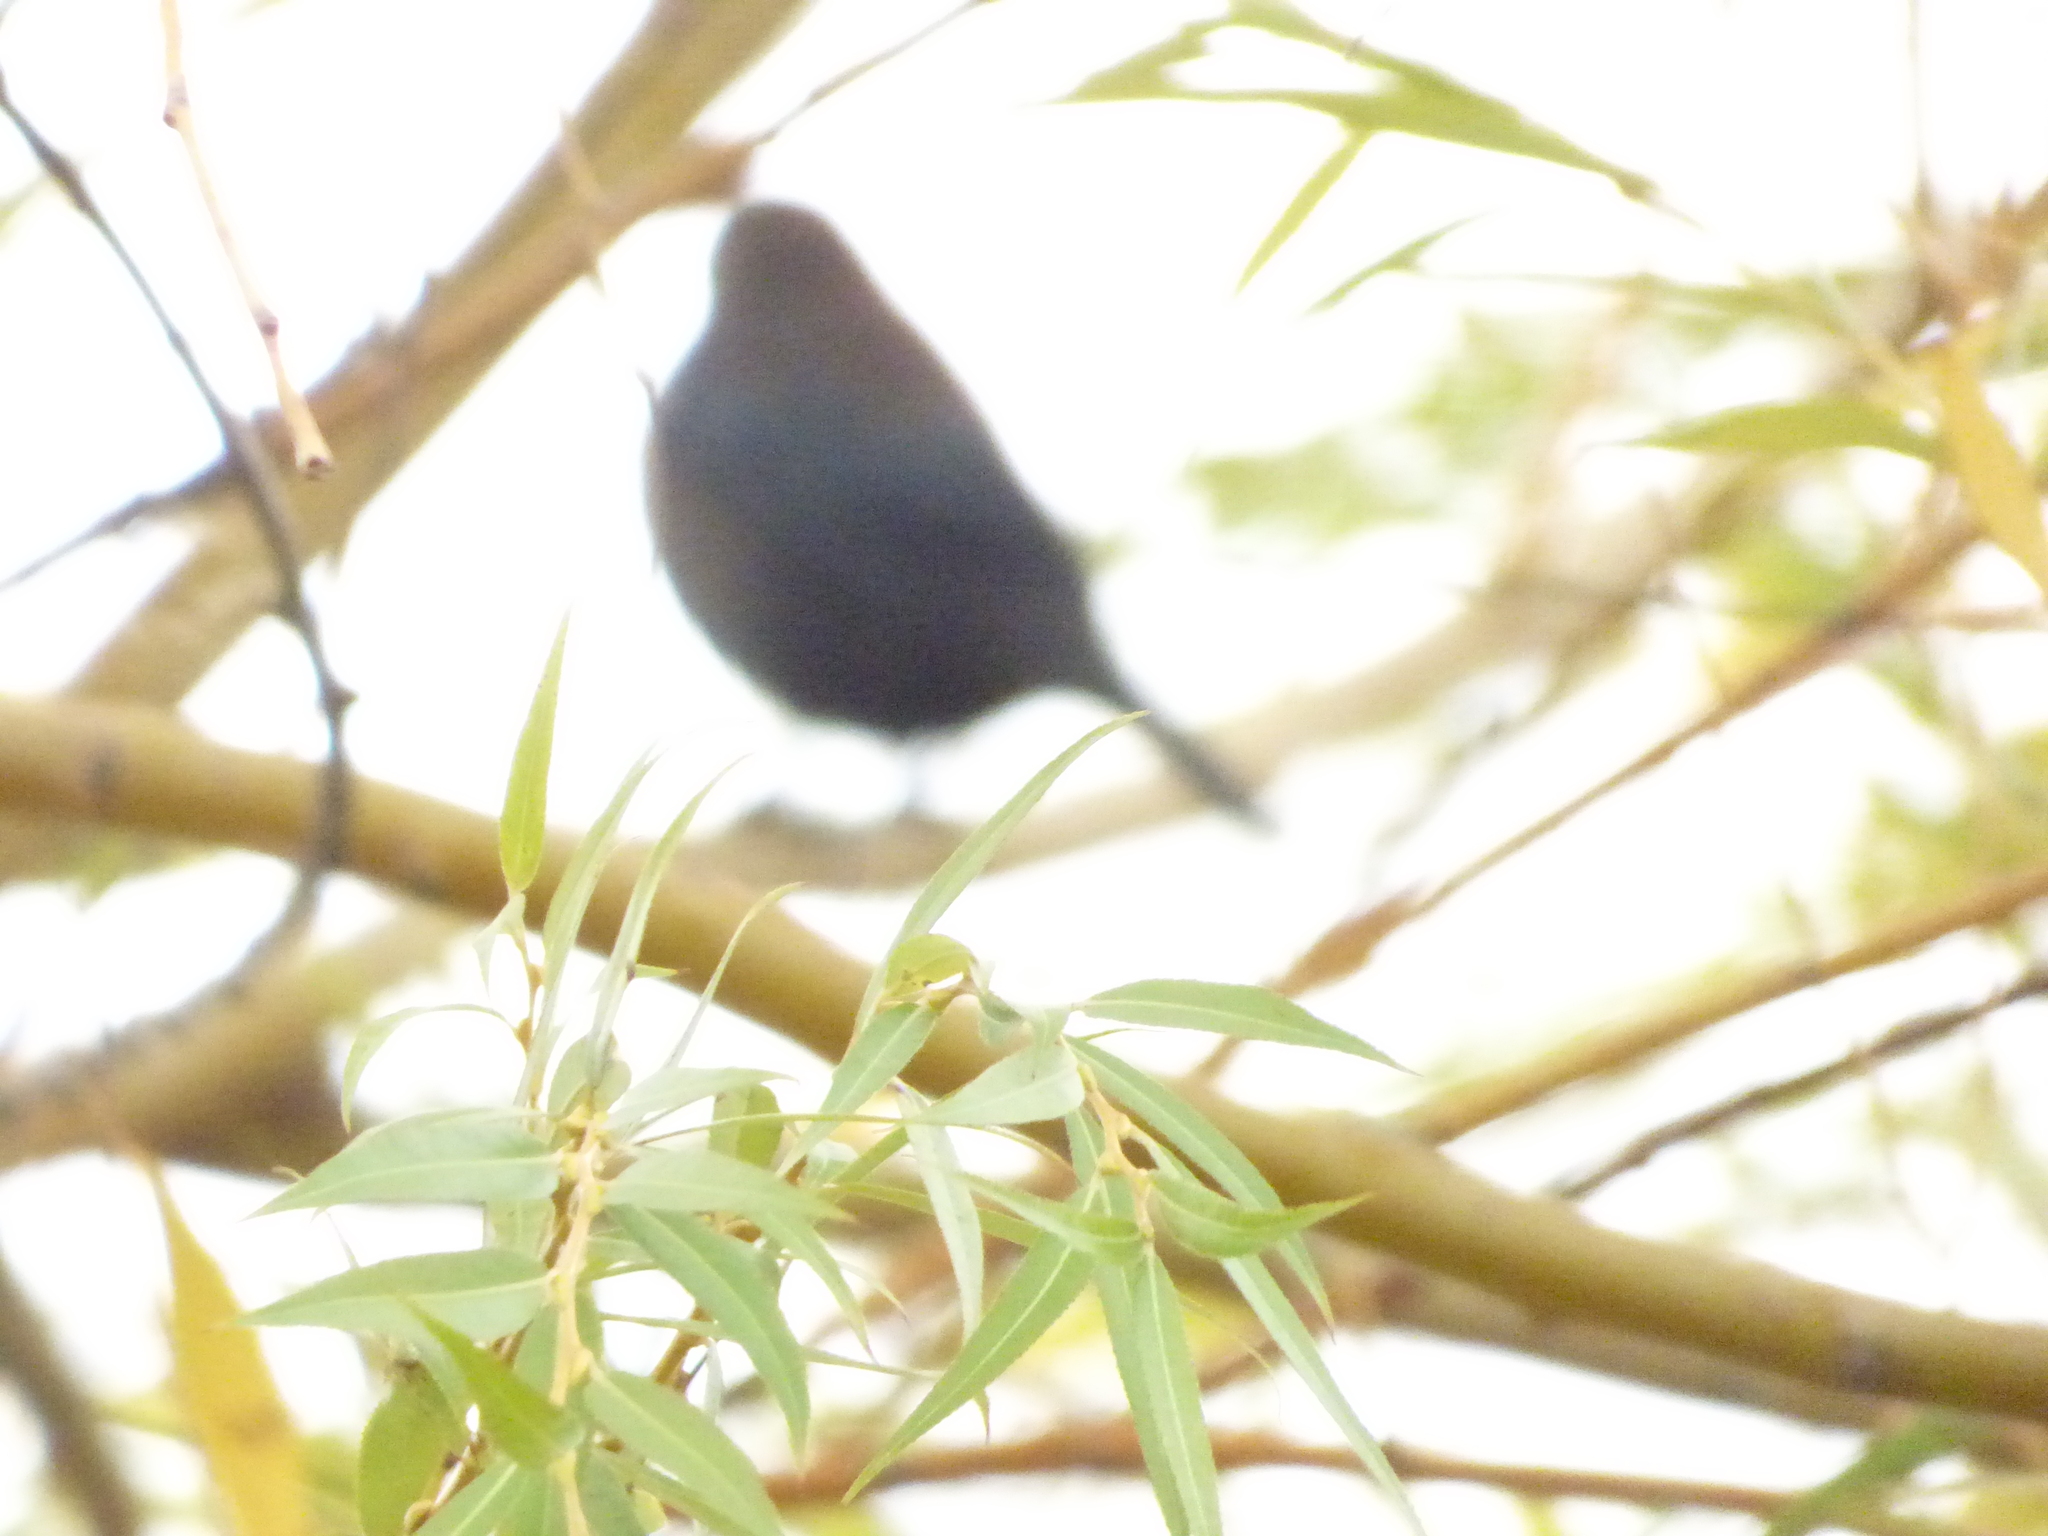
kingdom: Animalia
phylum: Chordata
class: Aves
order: Passeriformes
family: Icteridae
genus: Molothrus
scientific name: Molothrus ater
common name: Brown-headed cowbird
